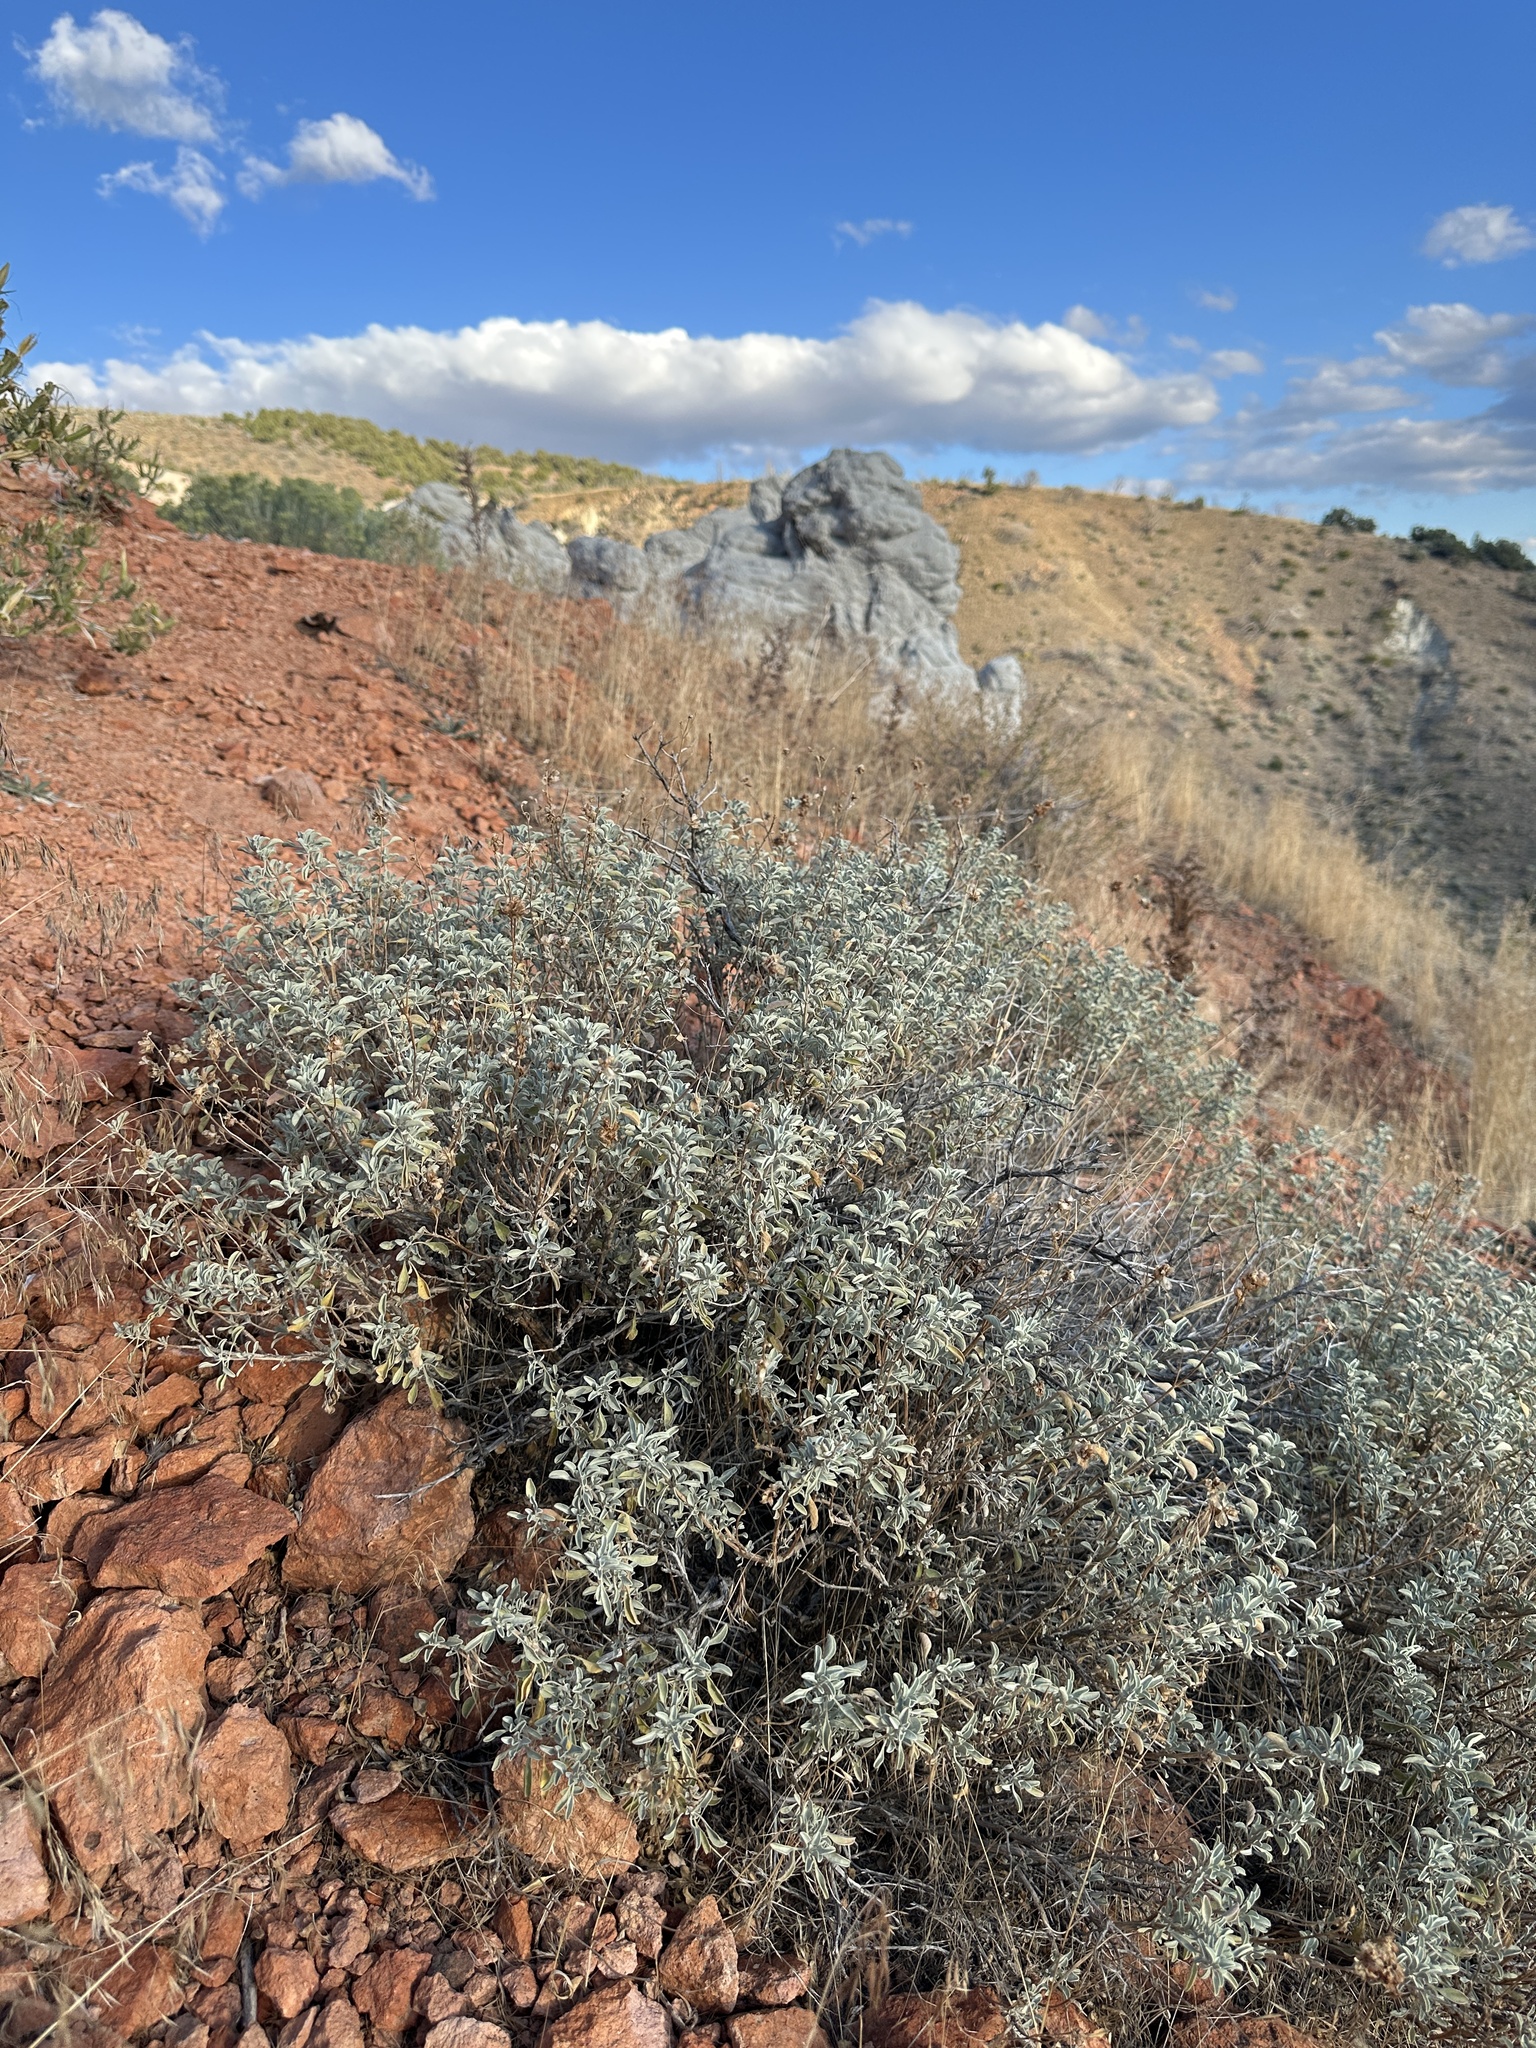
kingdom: Plantae
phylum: Tracheophyta
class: Magnoliopsida
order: Lamiales
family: Lamiaceae
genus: Salvia
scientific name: Salvia dorrii
